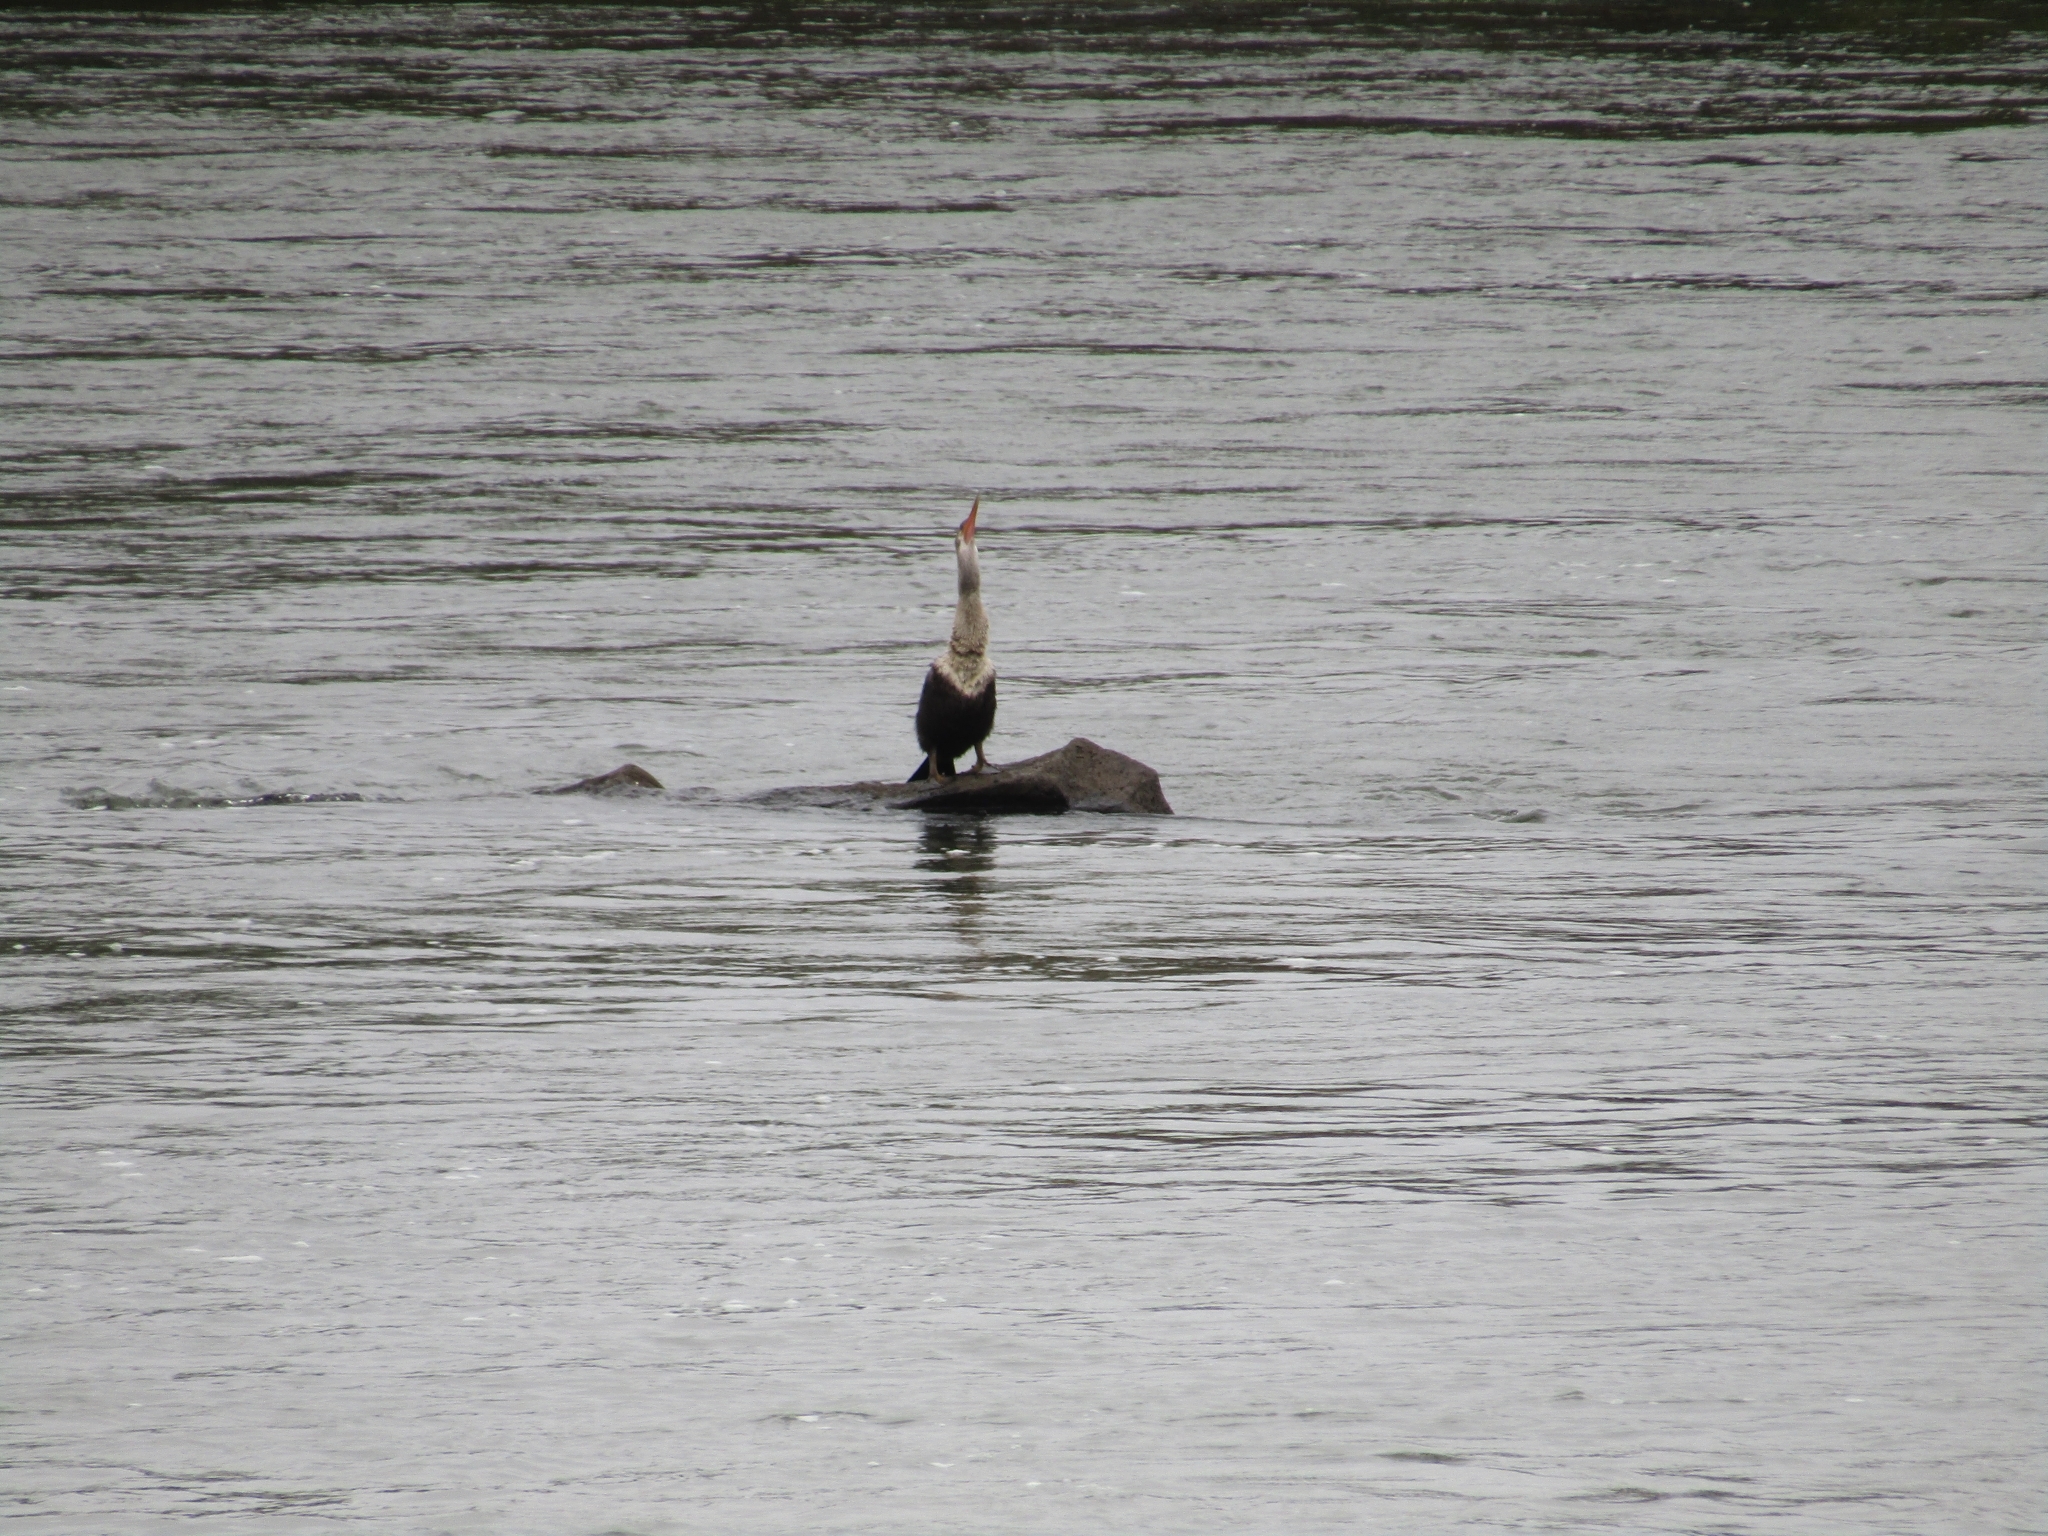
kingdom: Animalia
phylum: Chordata
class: Aves
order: Suliformes
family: Anhingidae
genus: Anhinga
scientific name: Anhinga anhinga
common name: Anhinga
